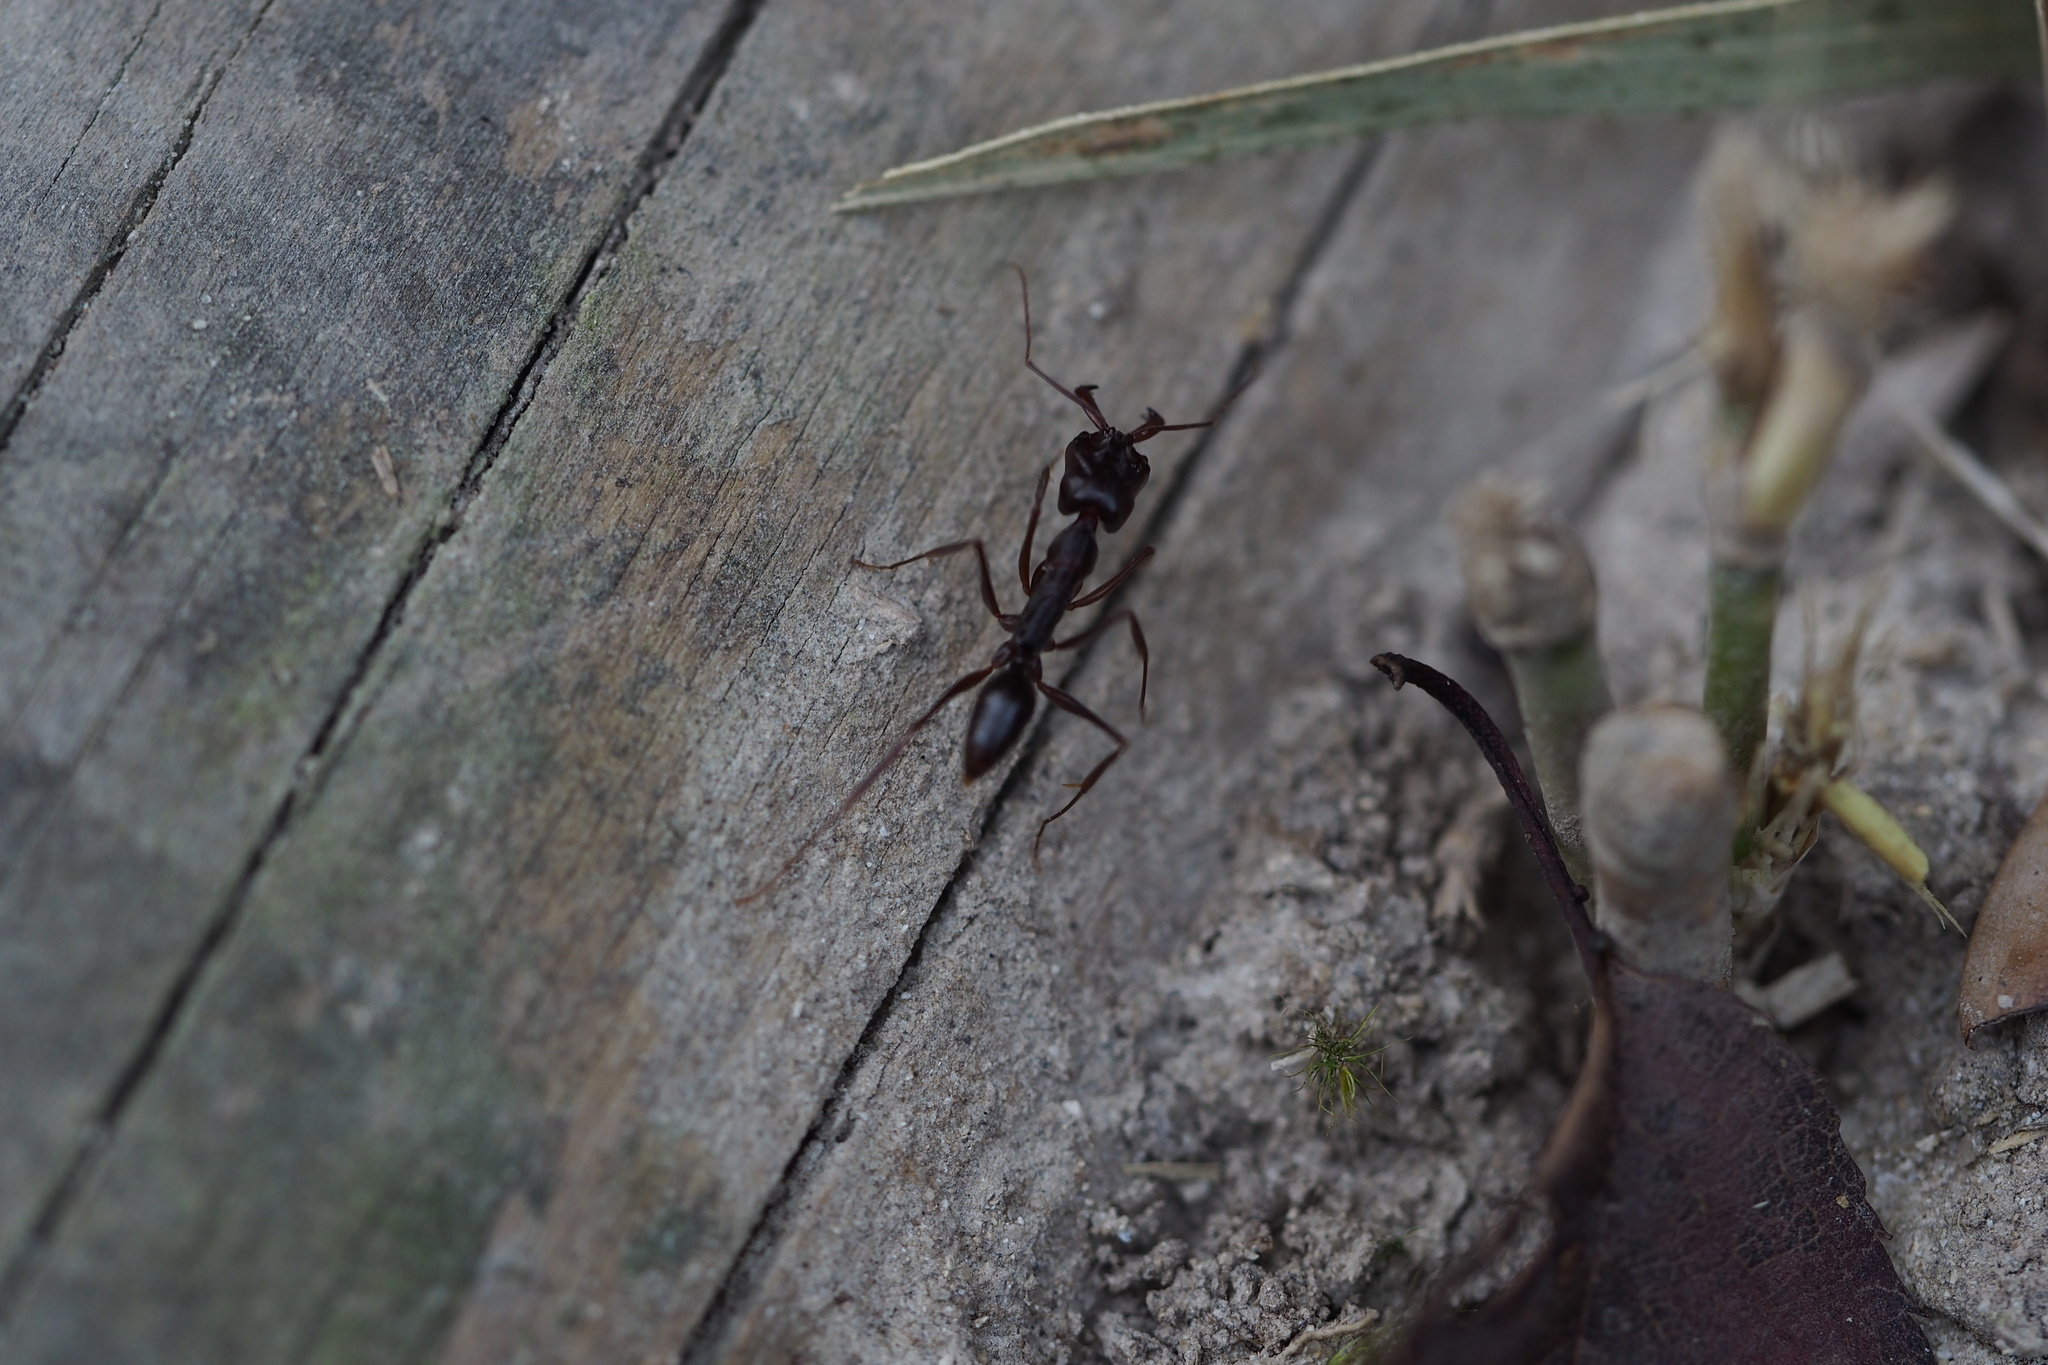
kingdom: Animalia
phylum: Arthropoda
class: Insecta
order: Hymenoptera
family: Formicidae
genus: Odontomachus
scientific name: Odontomachus monticola
